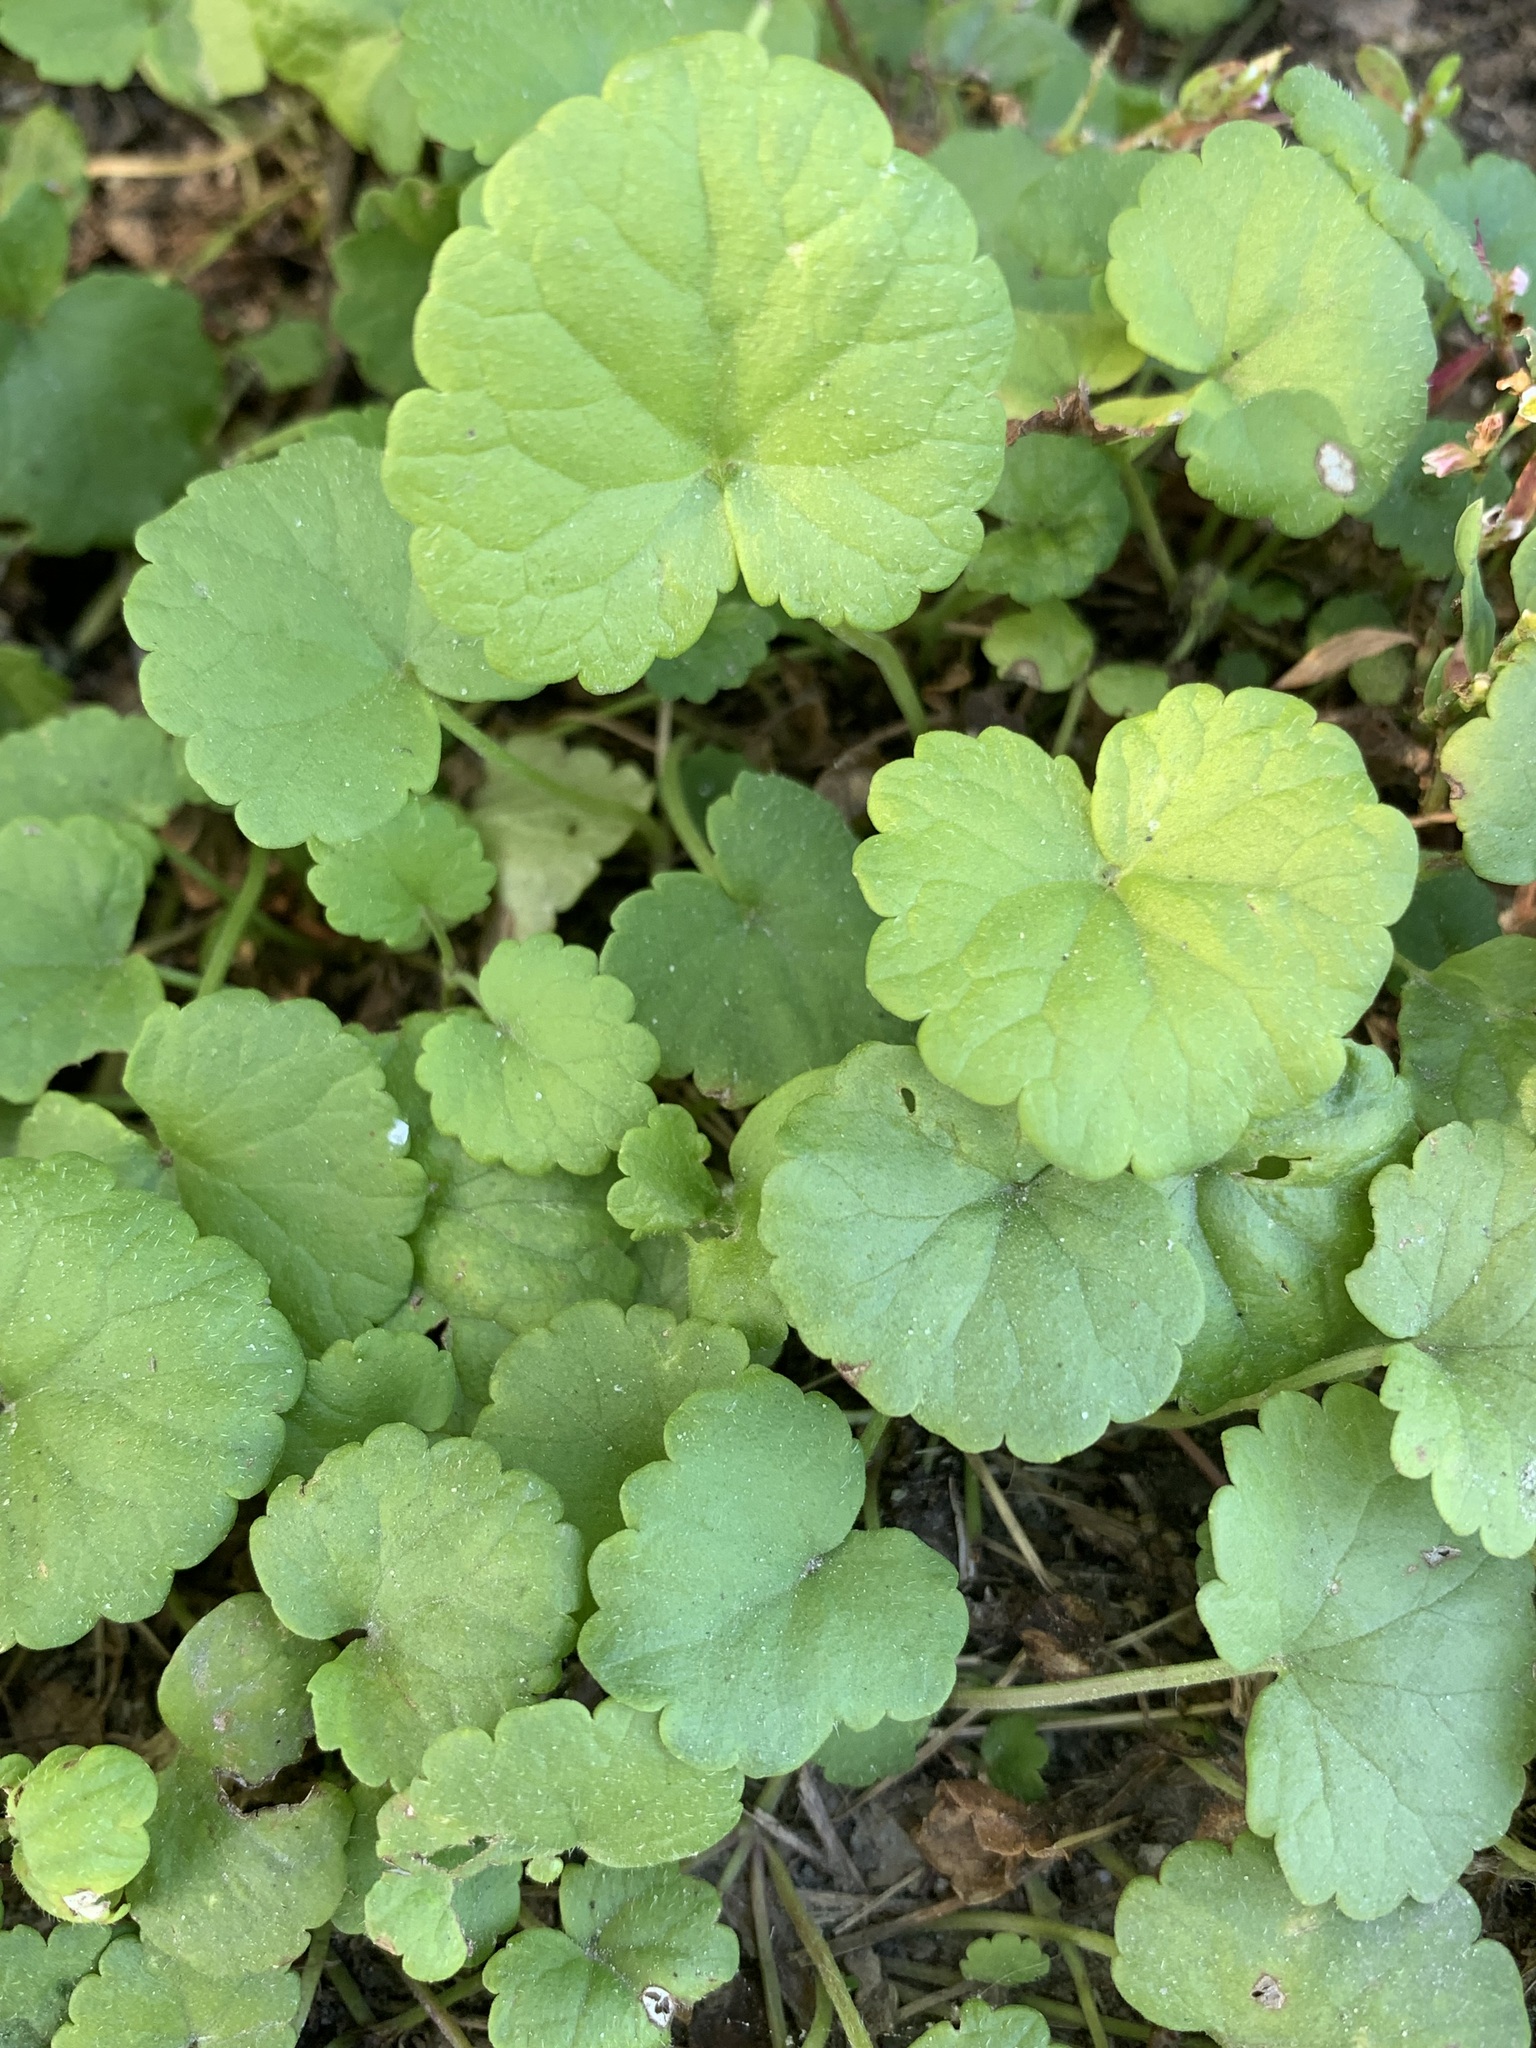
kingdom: Plantae
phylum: Tracheophyta
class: Magnoliopsida
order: Lamiales
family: Lamiaceae
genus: Glechoma
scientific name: Glechoma hederacea
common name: Ground ivy
